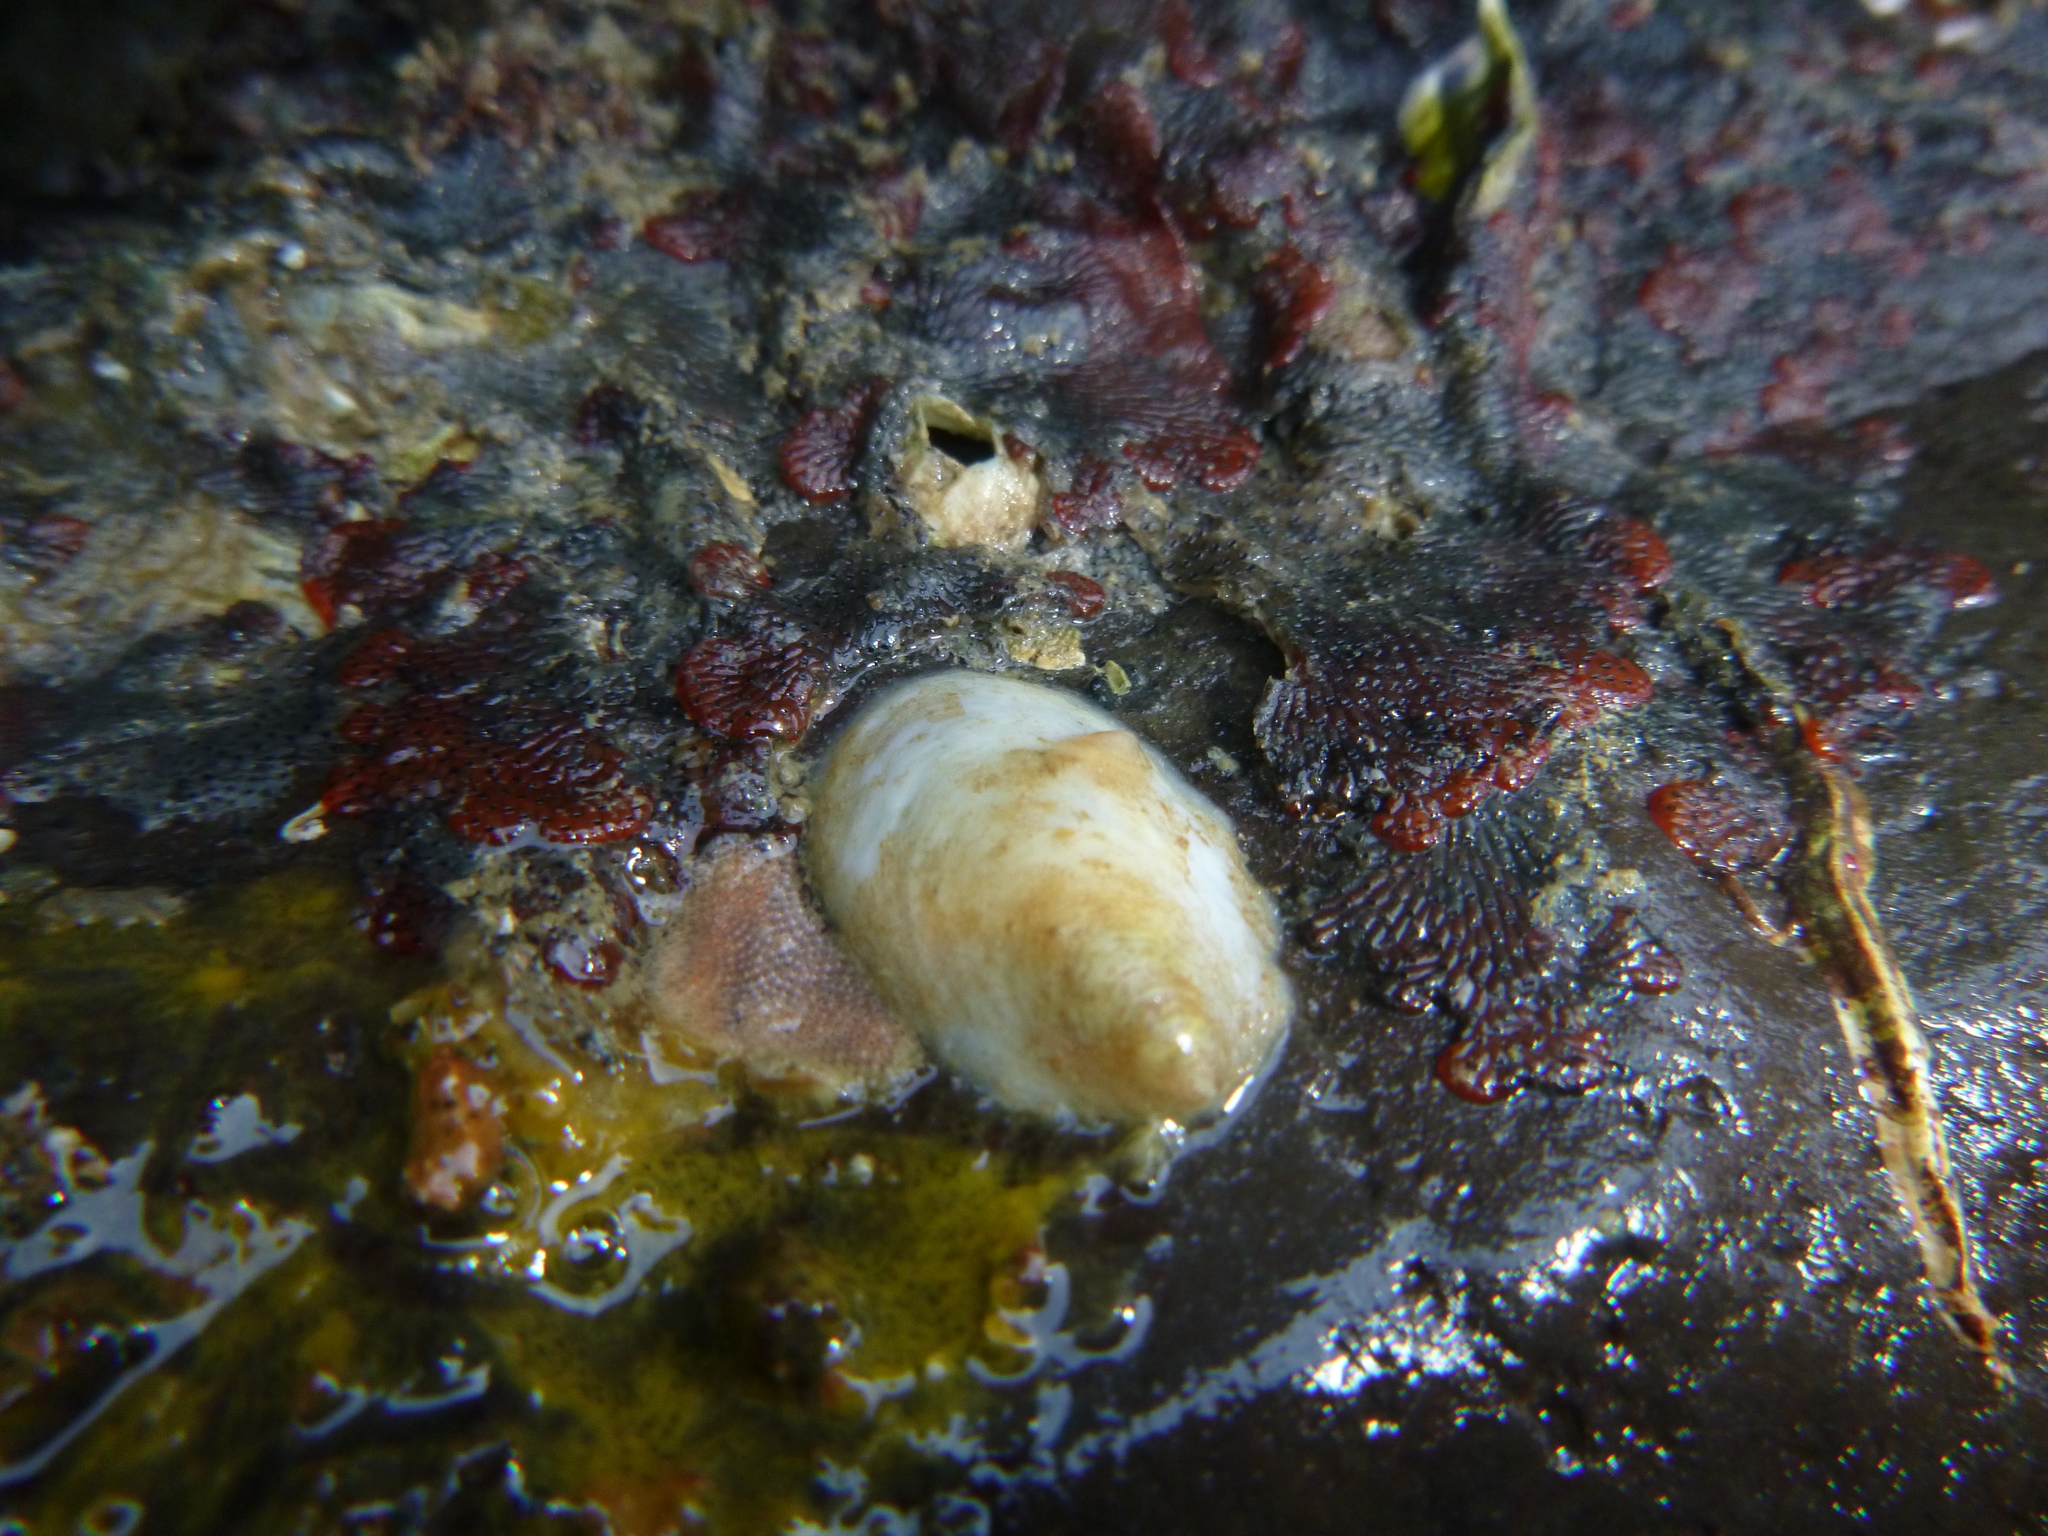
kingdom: Animalia
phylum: Mollusca
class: Gastropoda
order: Littorinimorpha
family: Calyptraeidae
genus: Maoricrypta
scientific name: Maoricrypta monoxyla
